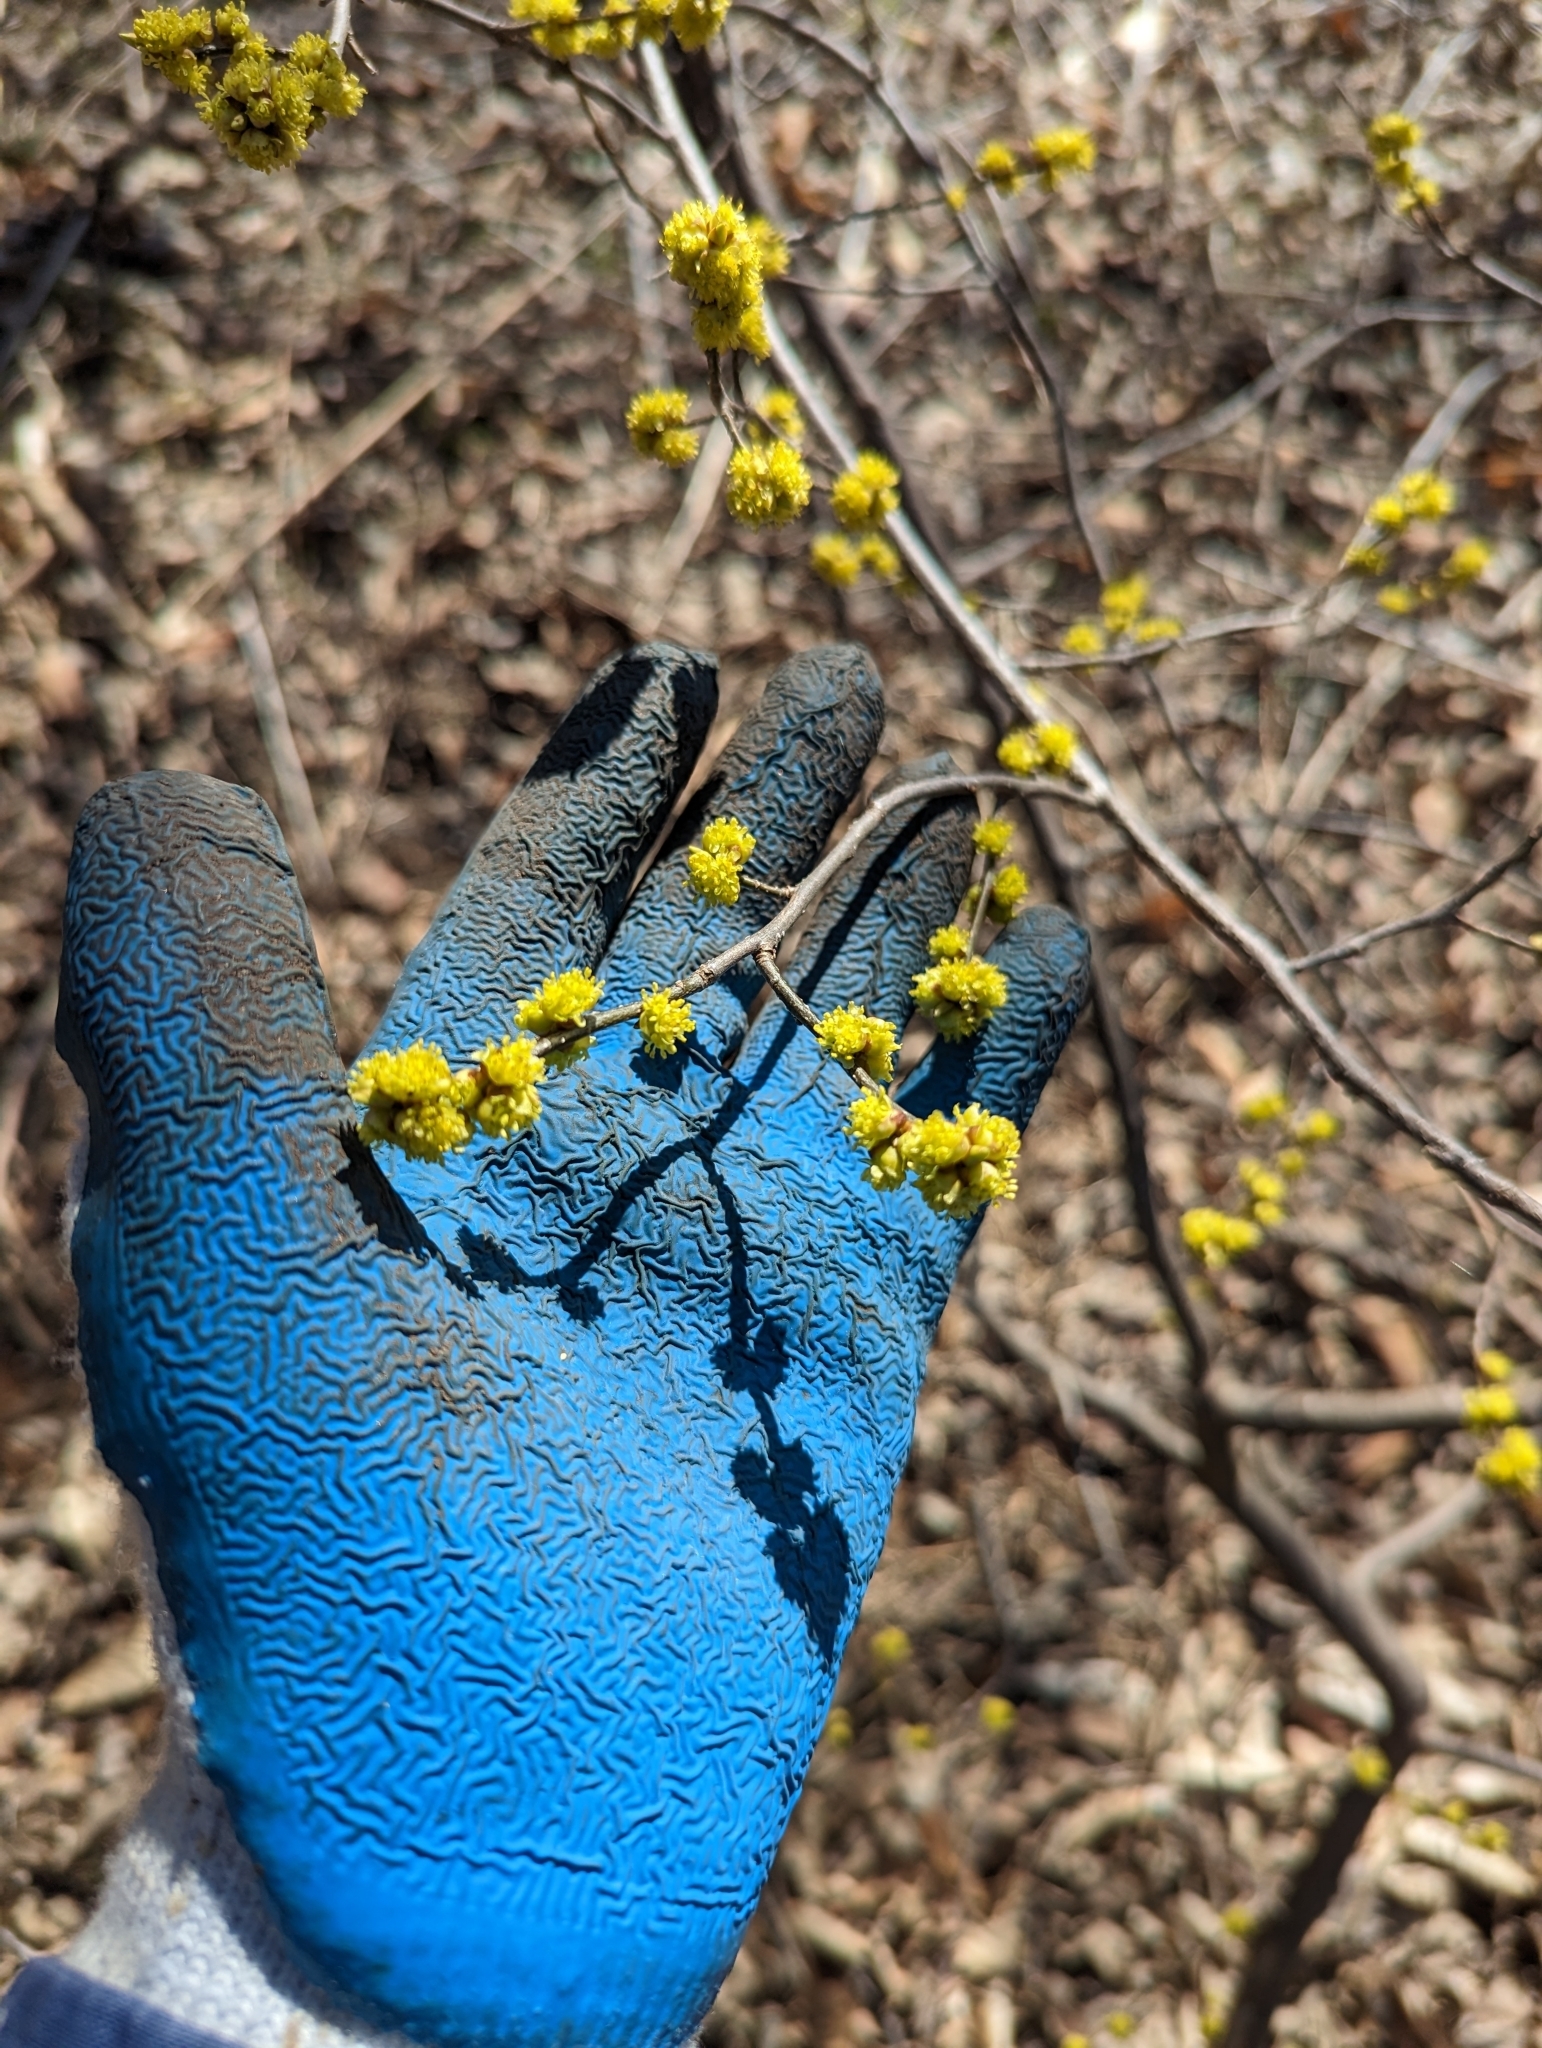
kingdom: Plantae
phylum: Tracheophyta
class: Magnoliopsida
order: Laurales
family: Lauraceae
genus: Lindera
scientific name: Lindera benzoin
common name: Spicebush
